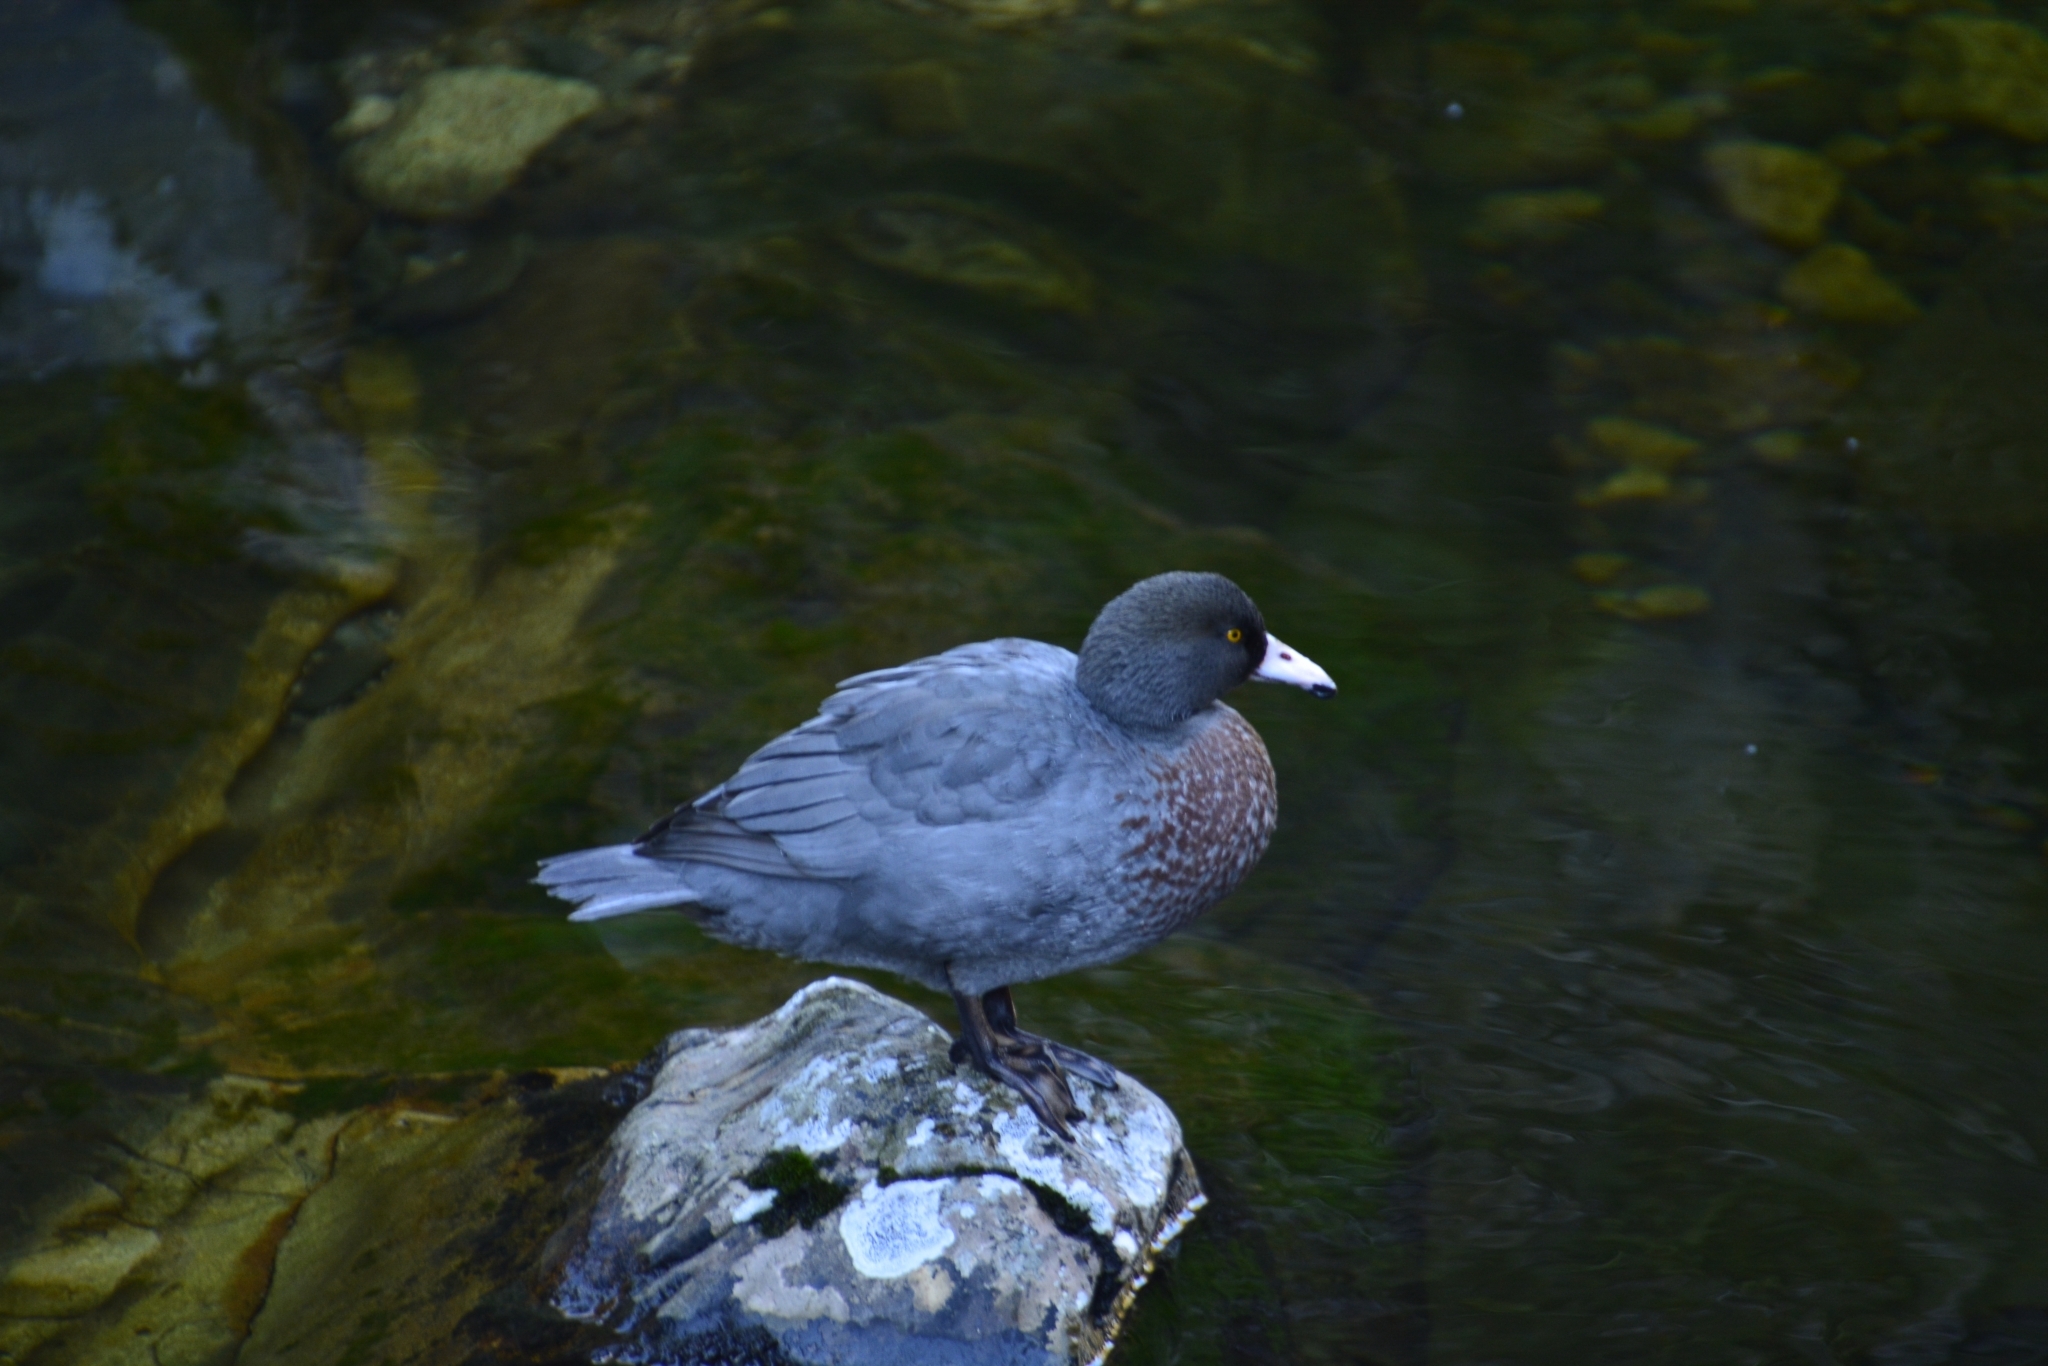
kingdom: Animalia
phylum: Chordata
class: Aves
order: Anseriformes
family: Anatidae
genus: Hymenolaimus
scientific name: Hymenolaimus malacorhynchos
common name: Blue duck
